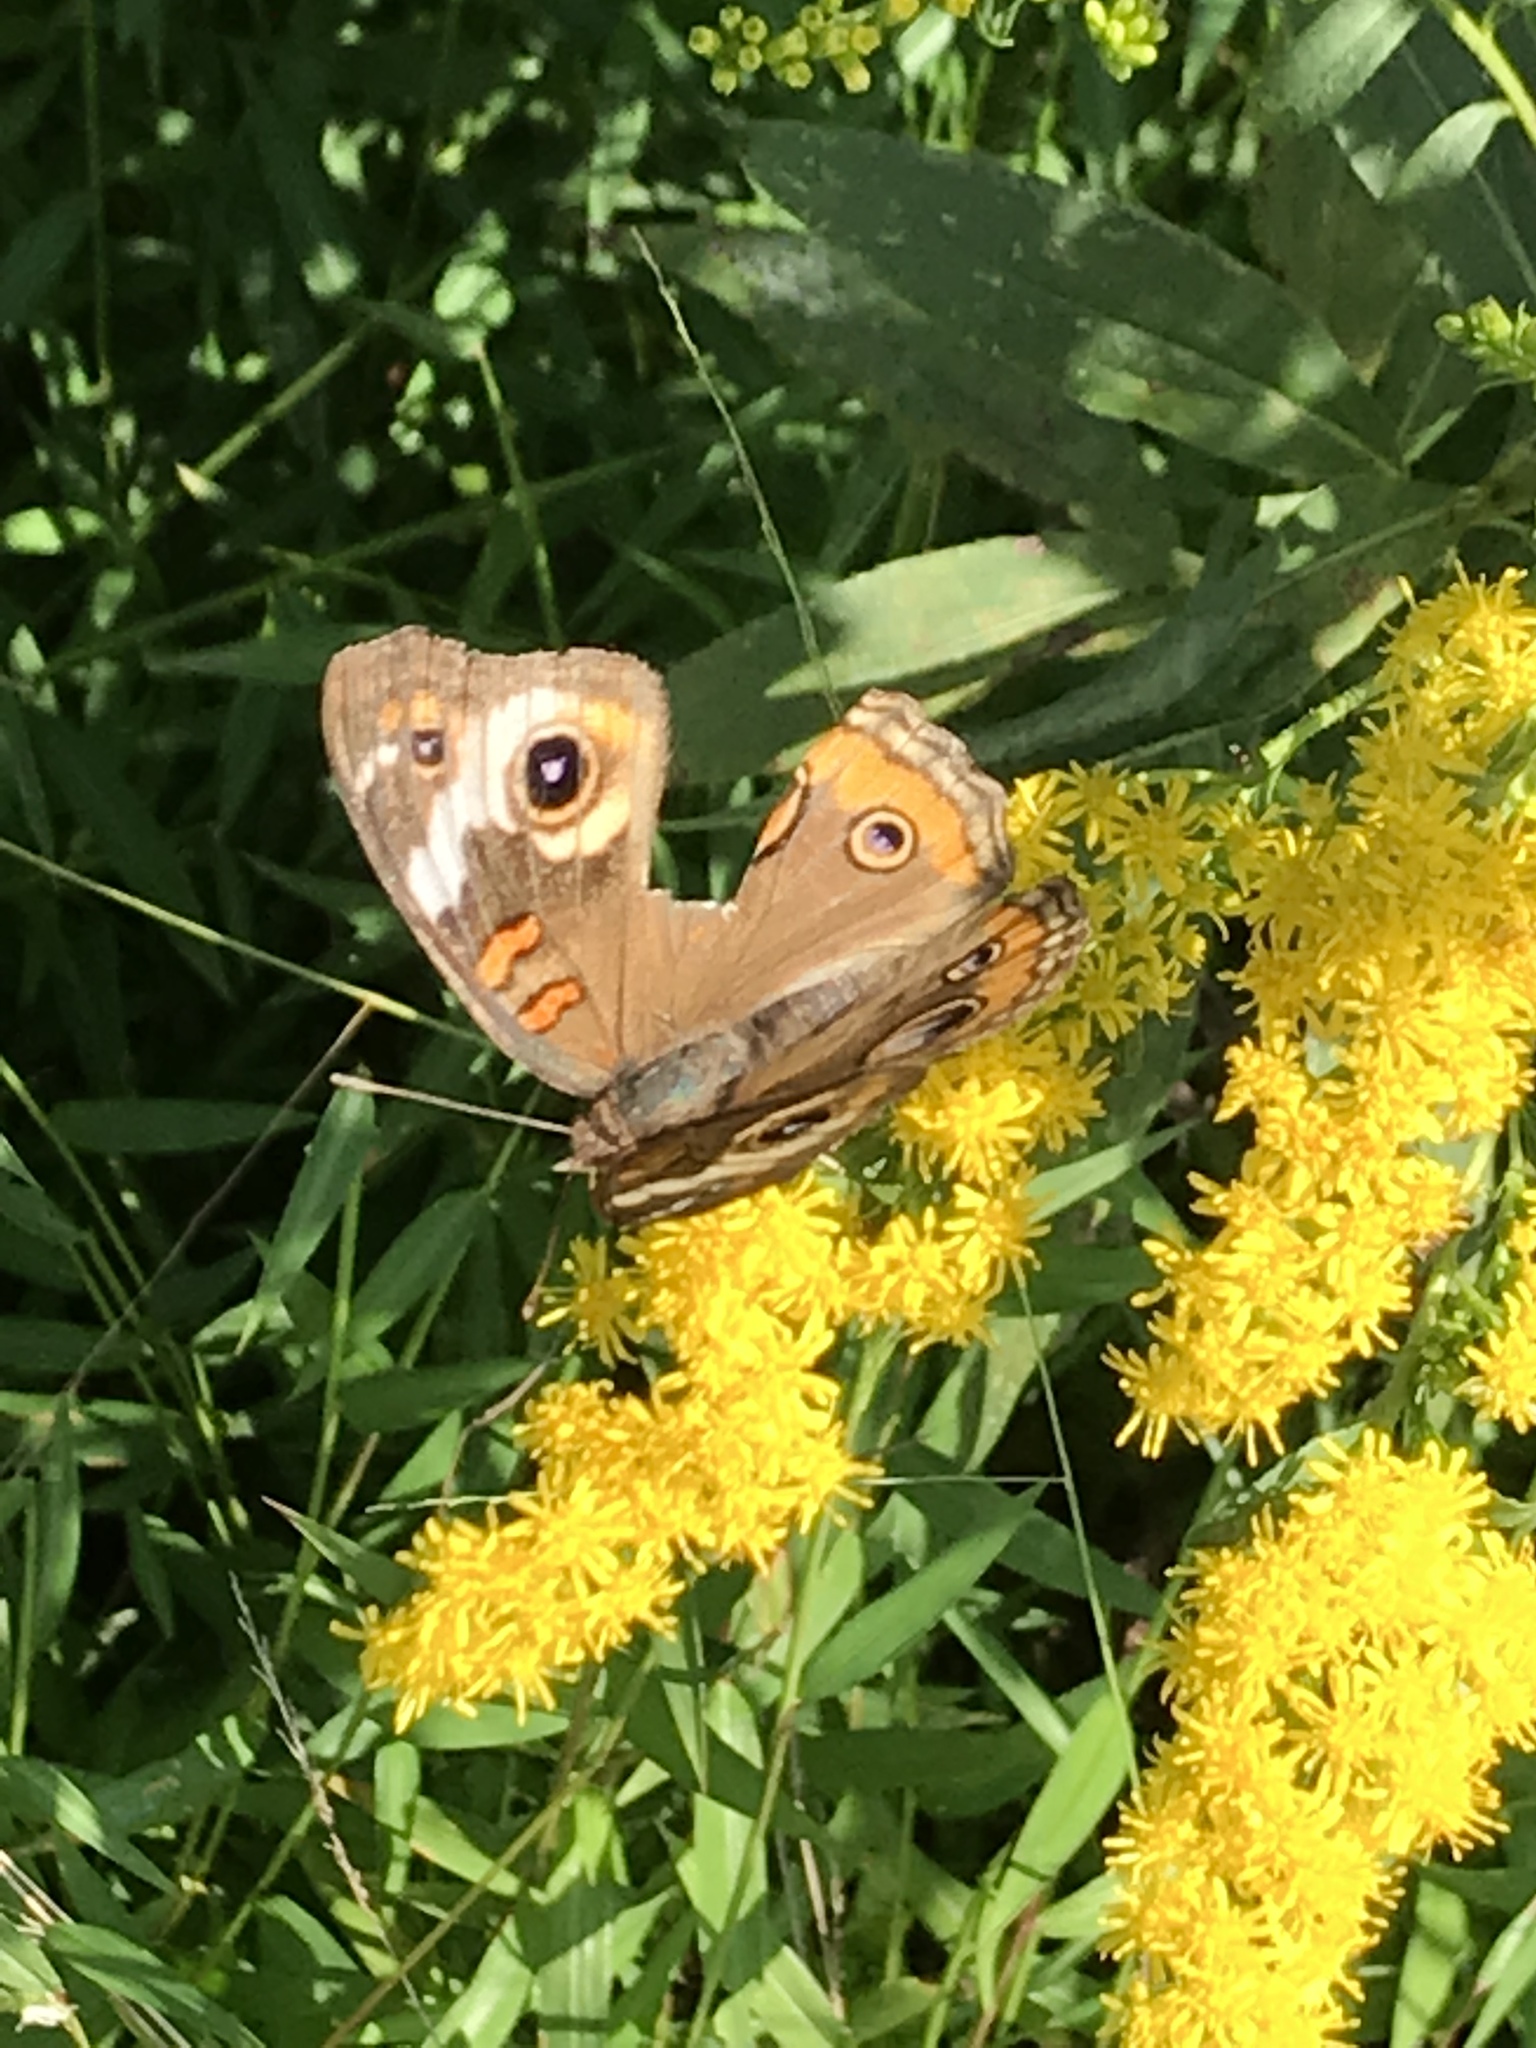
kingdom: Animalia
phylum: Arthropoda
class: Insecta
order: Lepidoptera
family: Nymphalidae
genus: Junonia
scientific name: Junonia coenia
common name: Common buckeye
